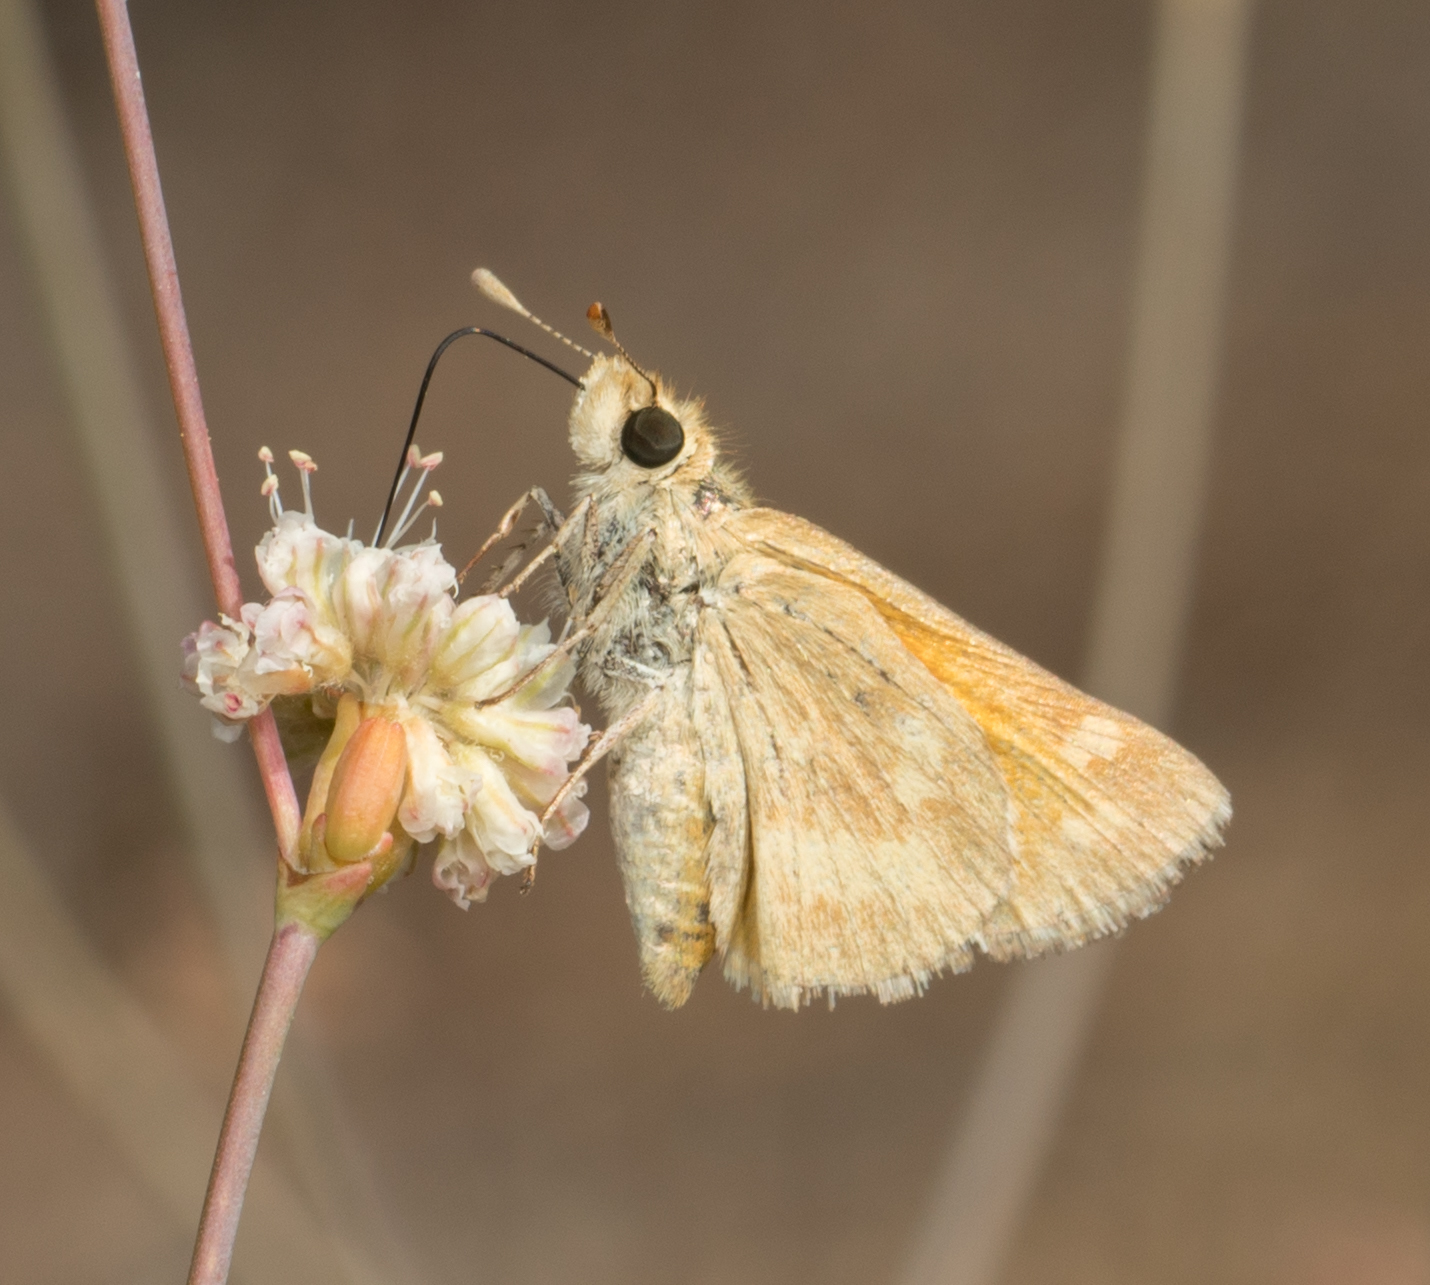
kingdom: Animalia
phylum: Arthropoda
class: Insecta
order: Lepidoptera
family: Hesperiidae
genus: Ochlodes
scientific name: Ochlodes sylvanoides
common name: Woodland skipper
